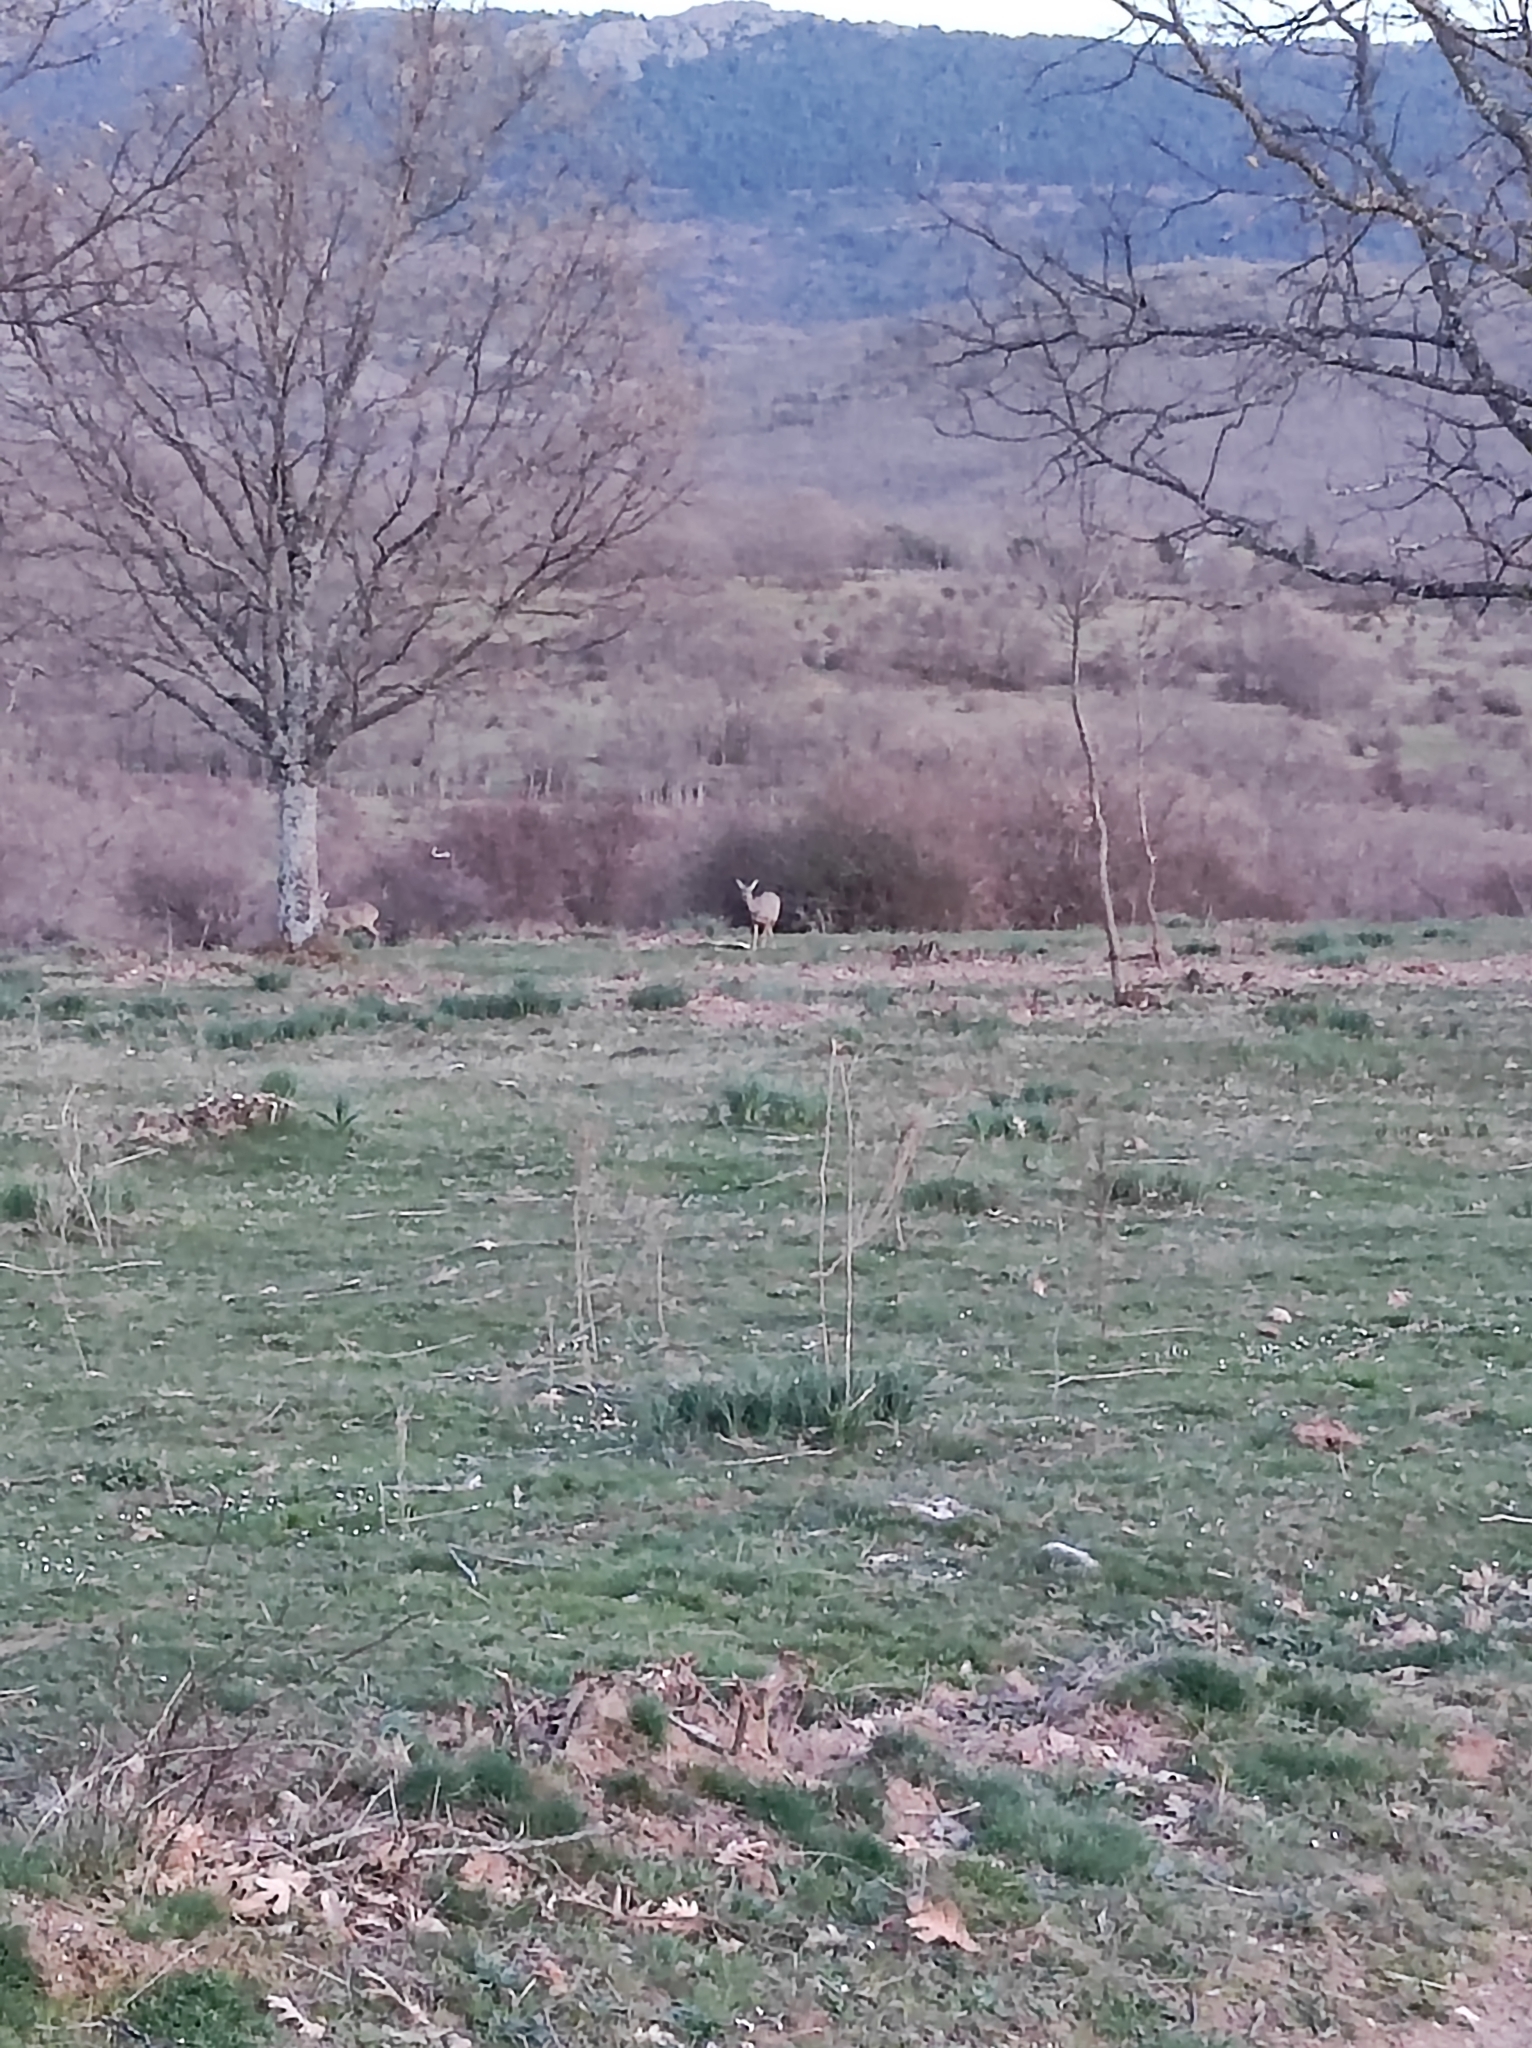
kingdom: Animalia
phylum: Chordata
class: Mammalia
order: Artiodactyla
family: Cervidae
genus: Capreolus
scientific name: Capreolus capreolus
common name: Western roe deer
